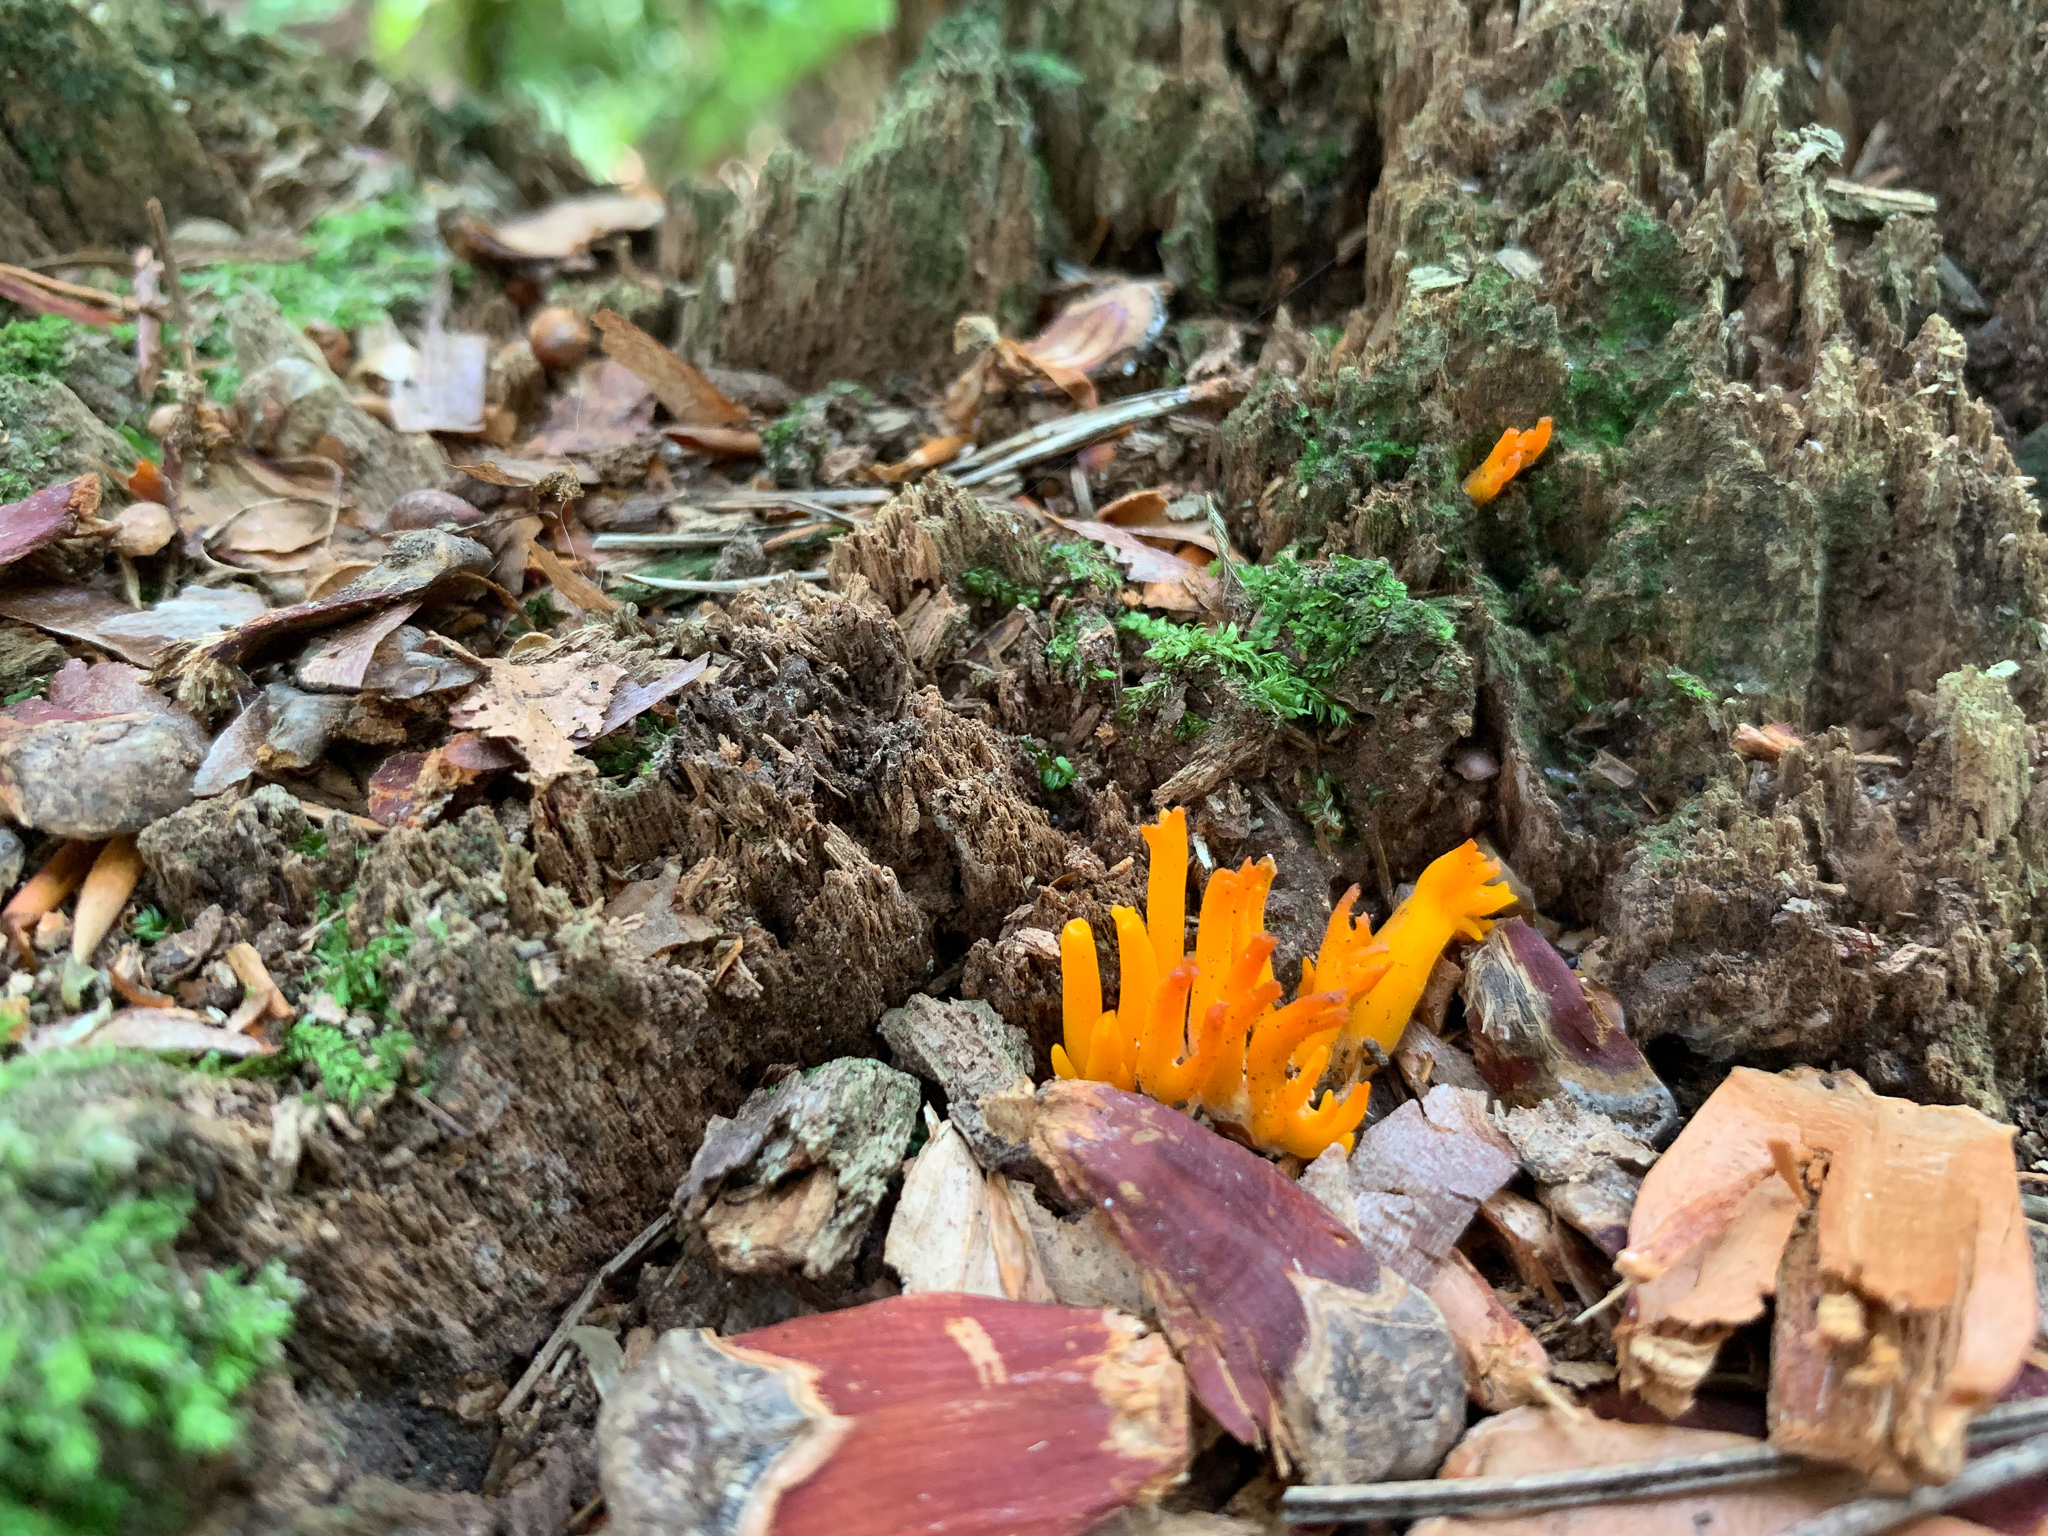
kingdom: Fungi
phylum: Basidiomycota
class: Dacrymycetes
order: Dacrymycetales
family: Dacrymycetaceae
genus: Calocera
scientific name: Calocera viscosa
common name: Yellow stagshorn
